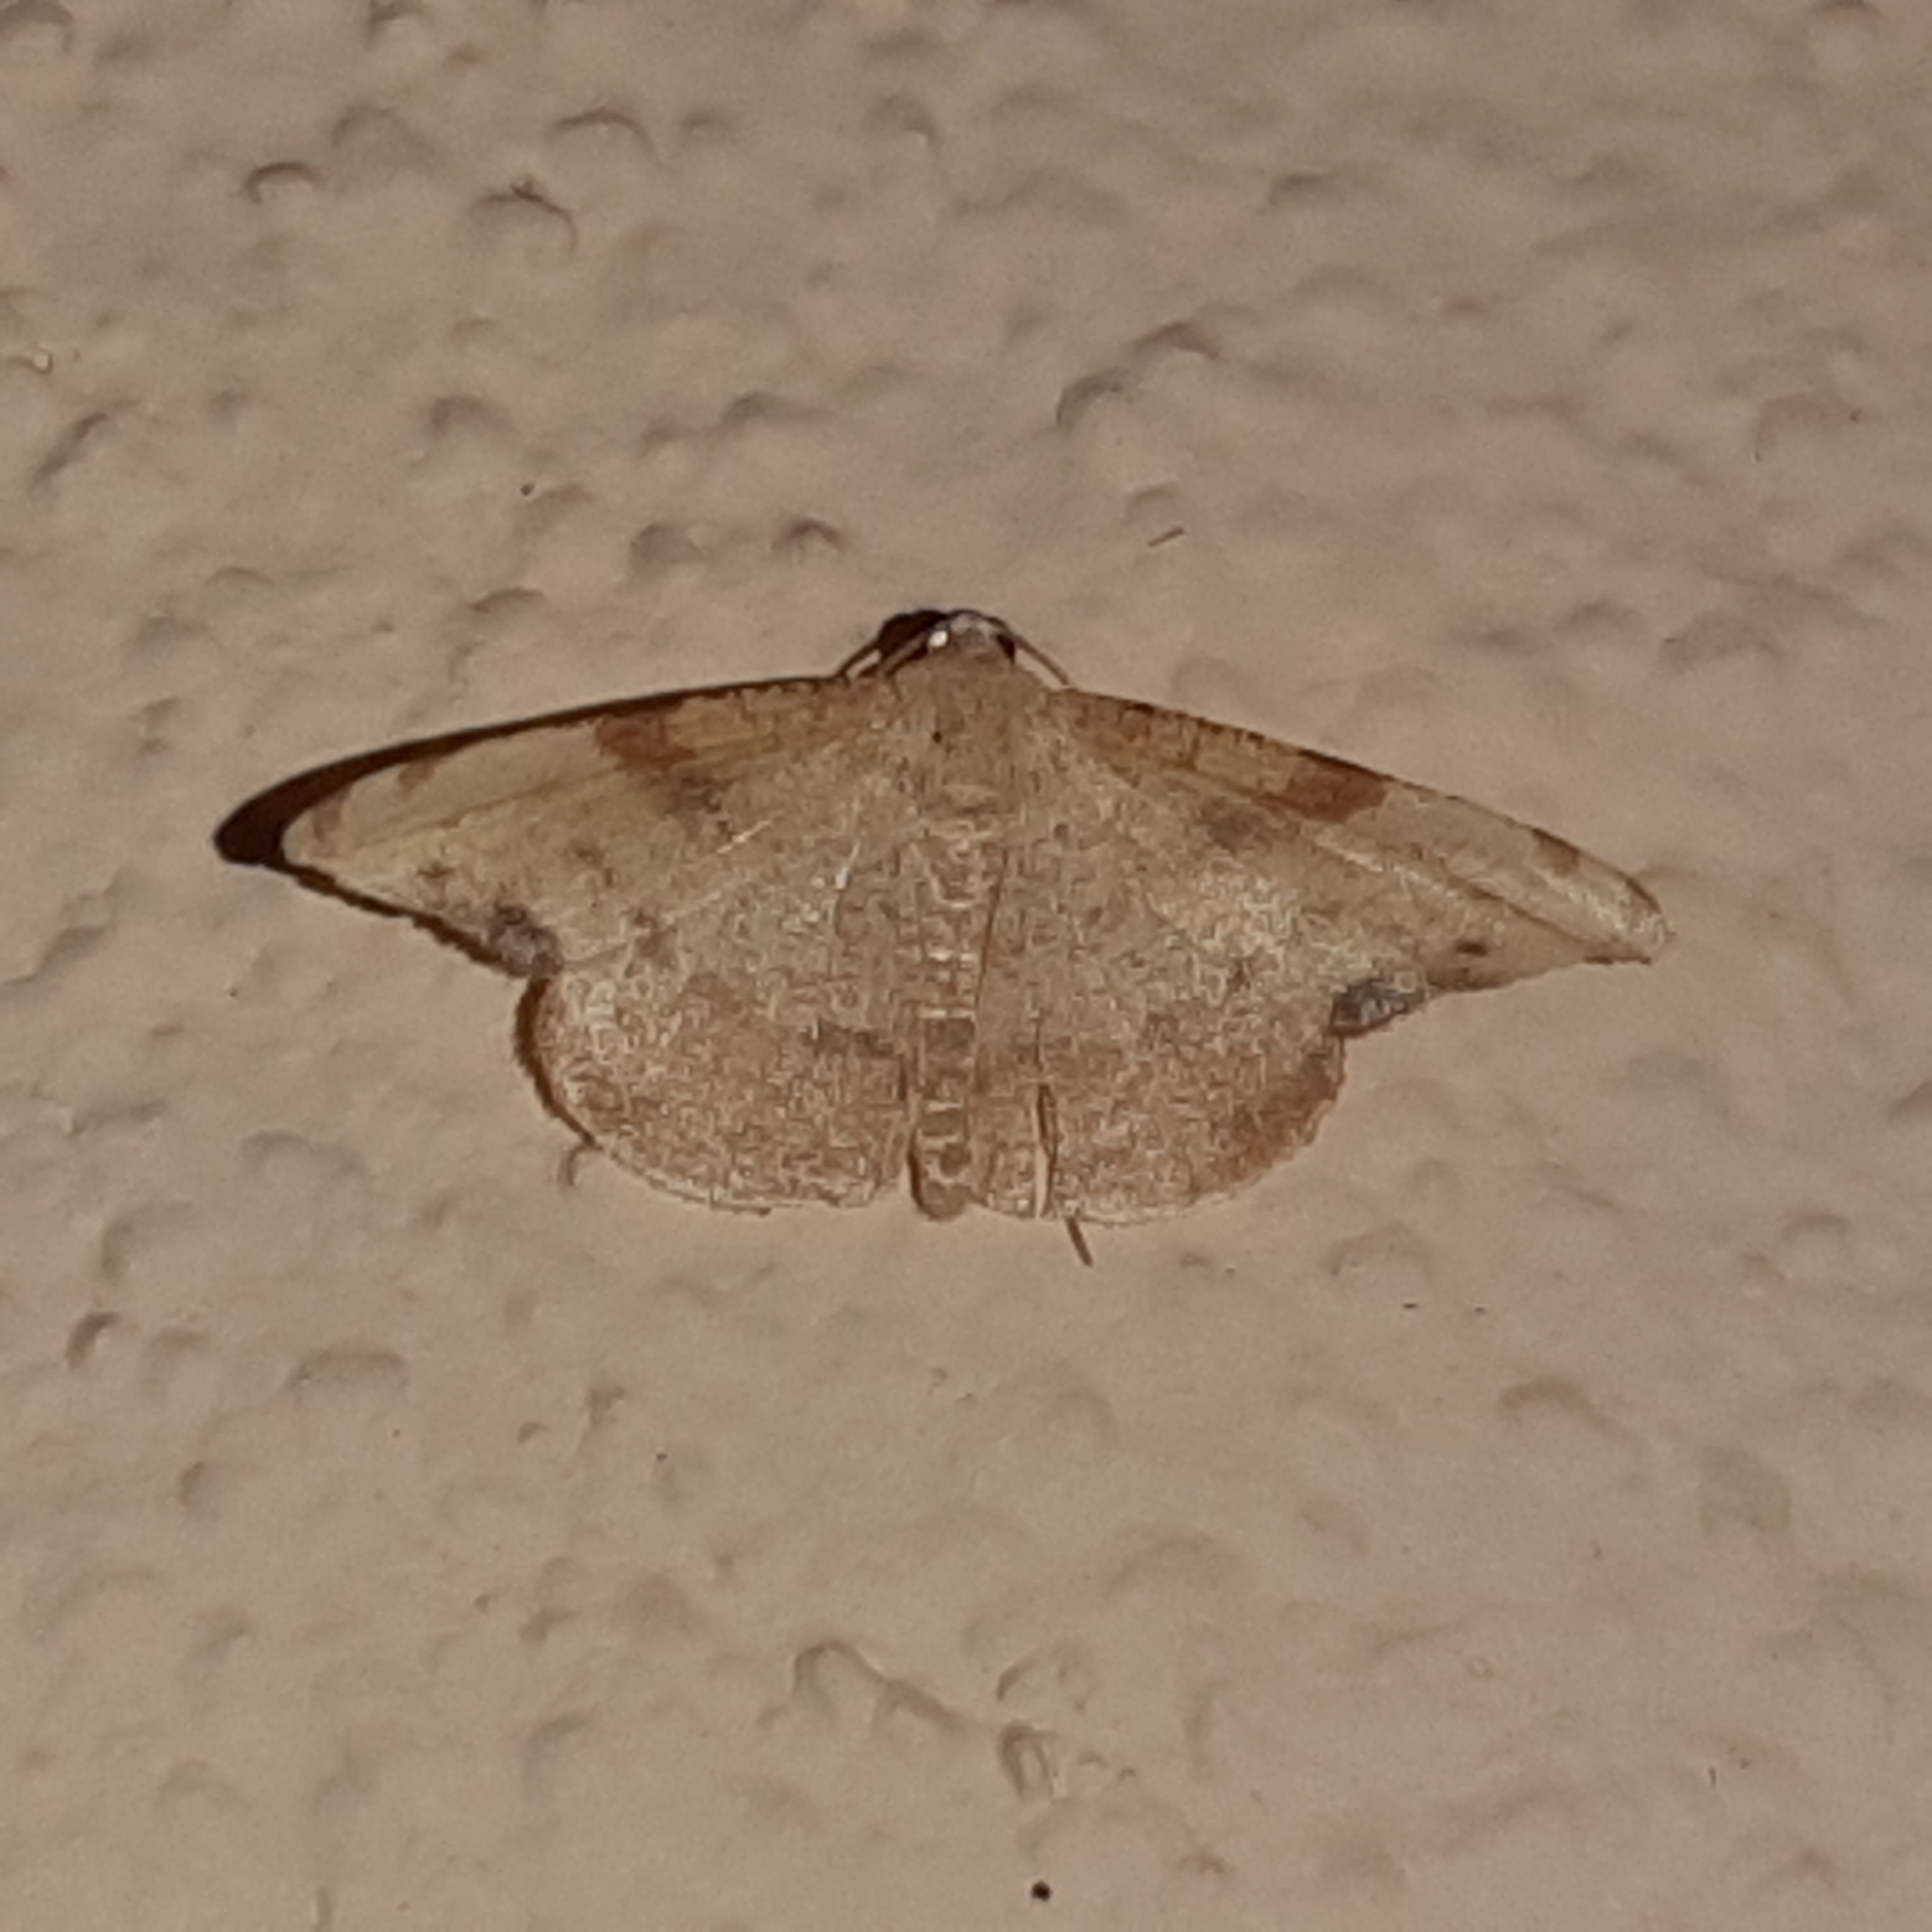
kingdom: Animalia
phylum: Arthropoda
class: Insecta
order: Lepidoptera
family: Geometridae
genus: Pyrinia
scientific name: Pyrinia selecta
